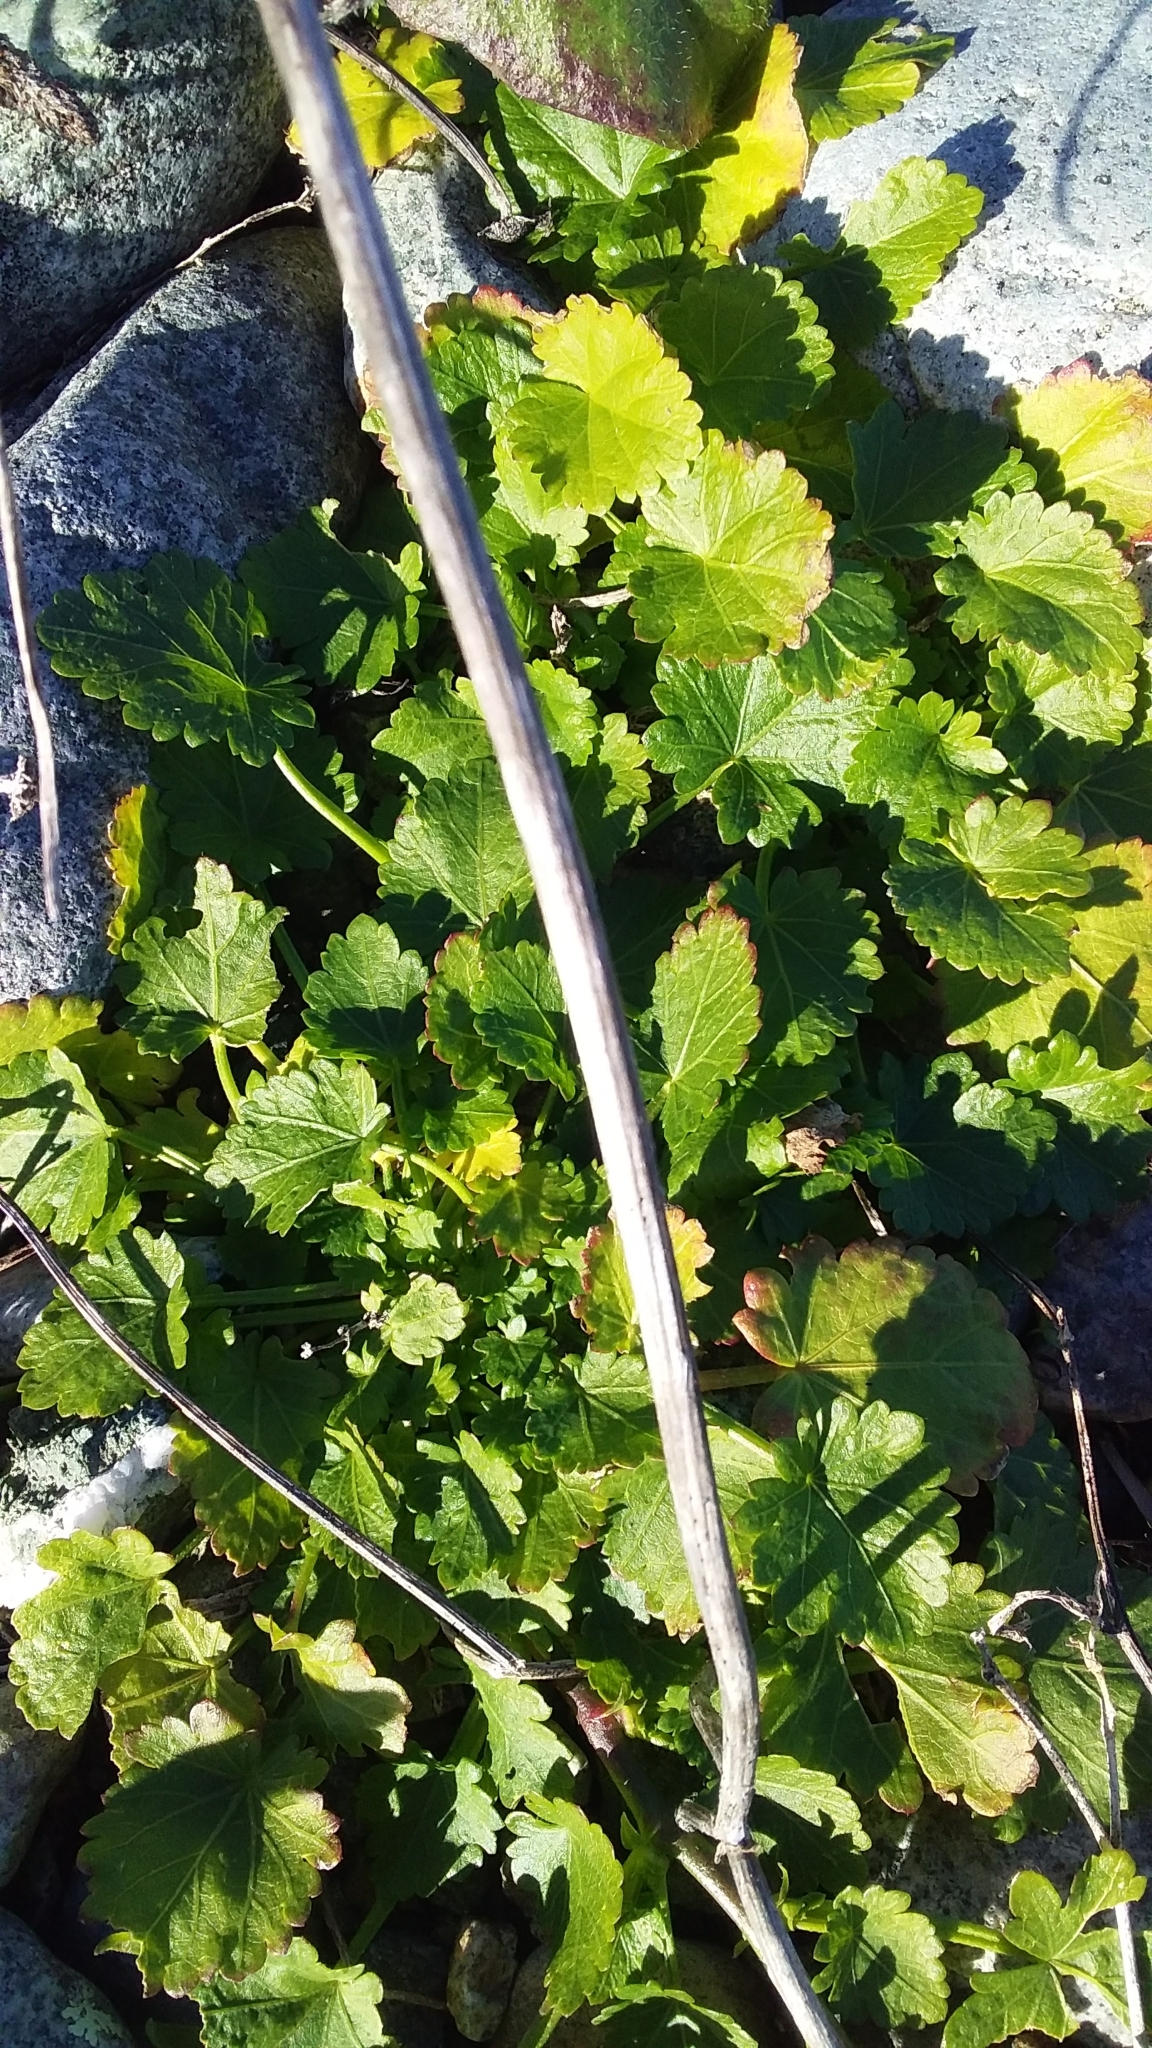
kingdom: Plantae
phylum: Tracheophyta
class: Magnoliopsida
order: Malvales
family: Malvaceae
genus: Modiola
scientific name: Modiola caroliniana
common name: Carolina bristlemallow
